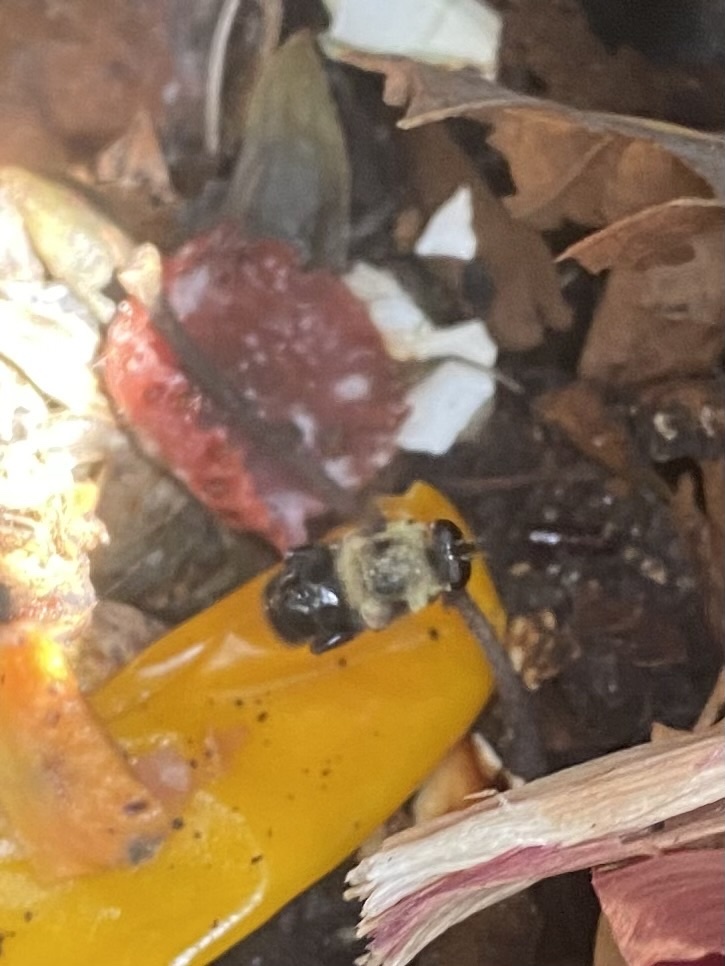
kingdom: Animalia
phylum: Arthropoda
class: Insecta
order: Diptera
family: Syrphidae
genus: Imatisma
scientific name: Imatisma bautias
